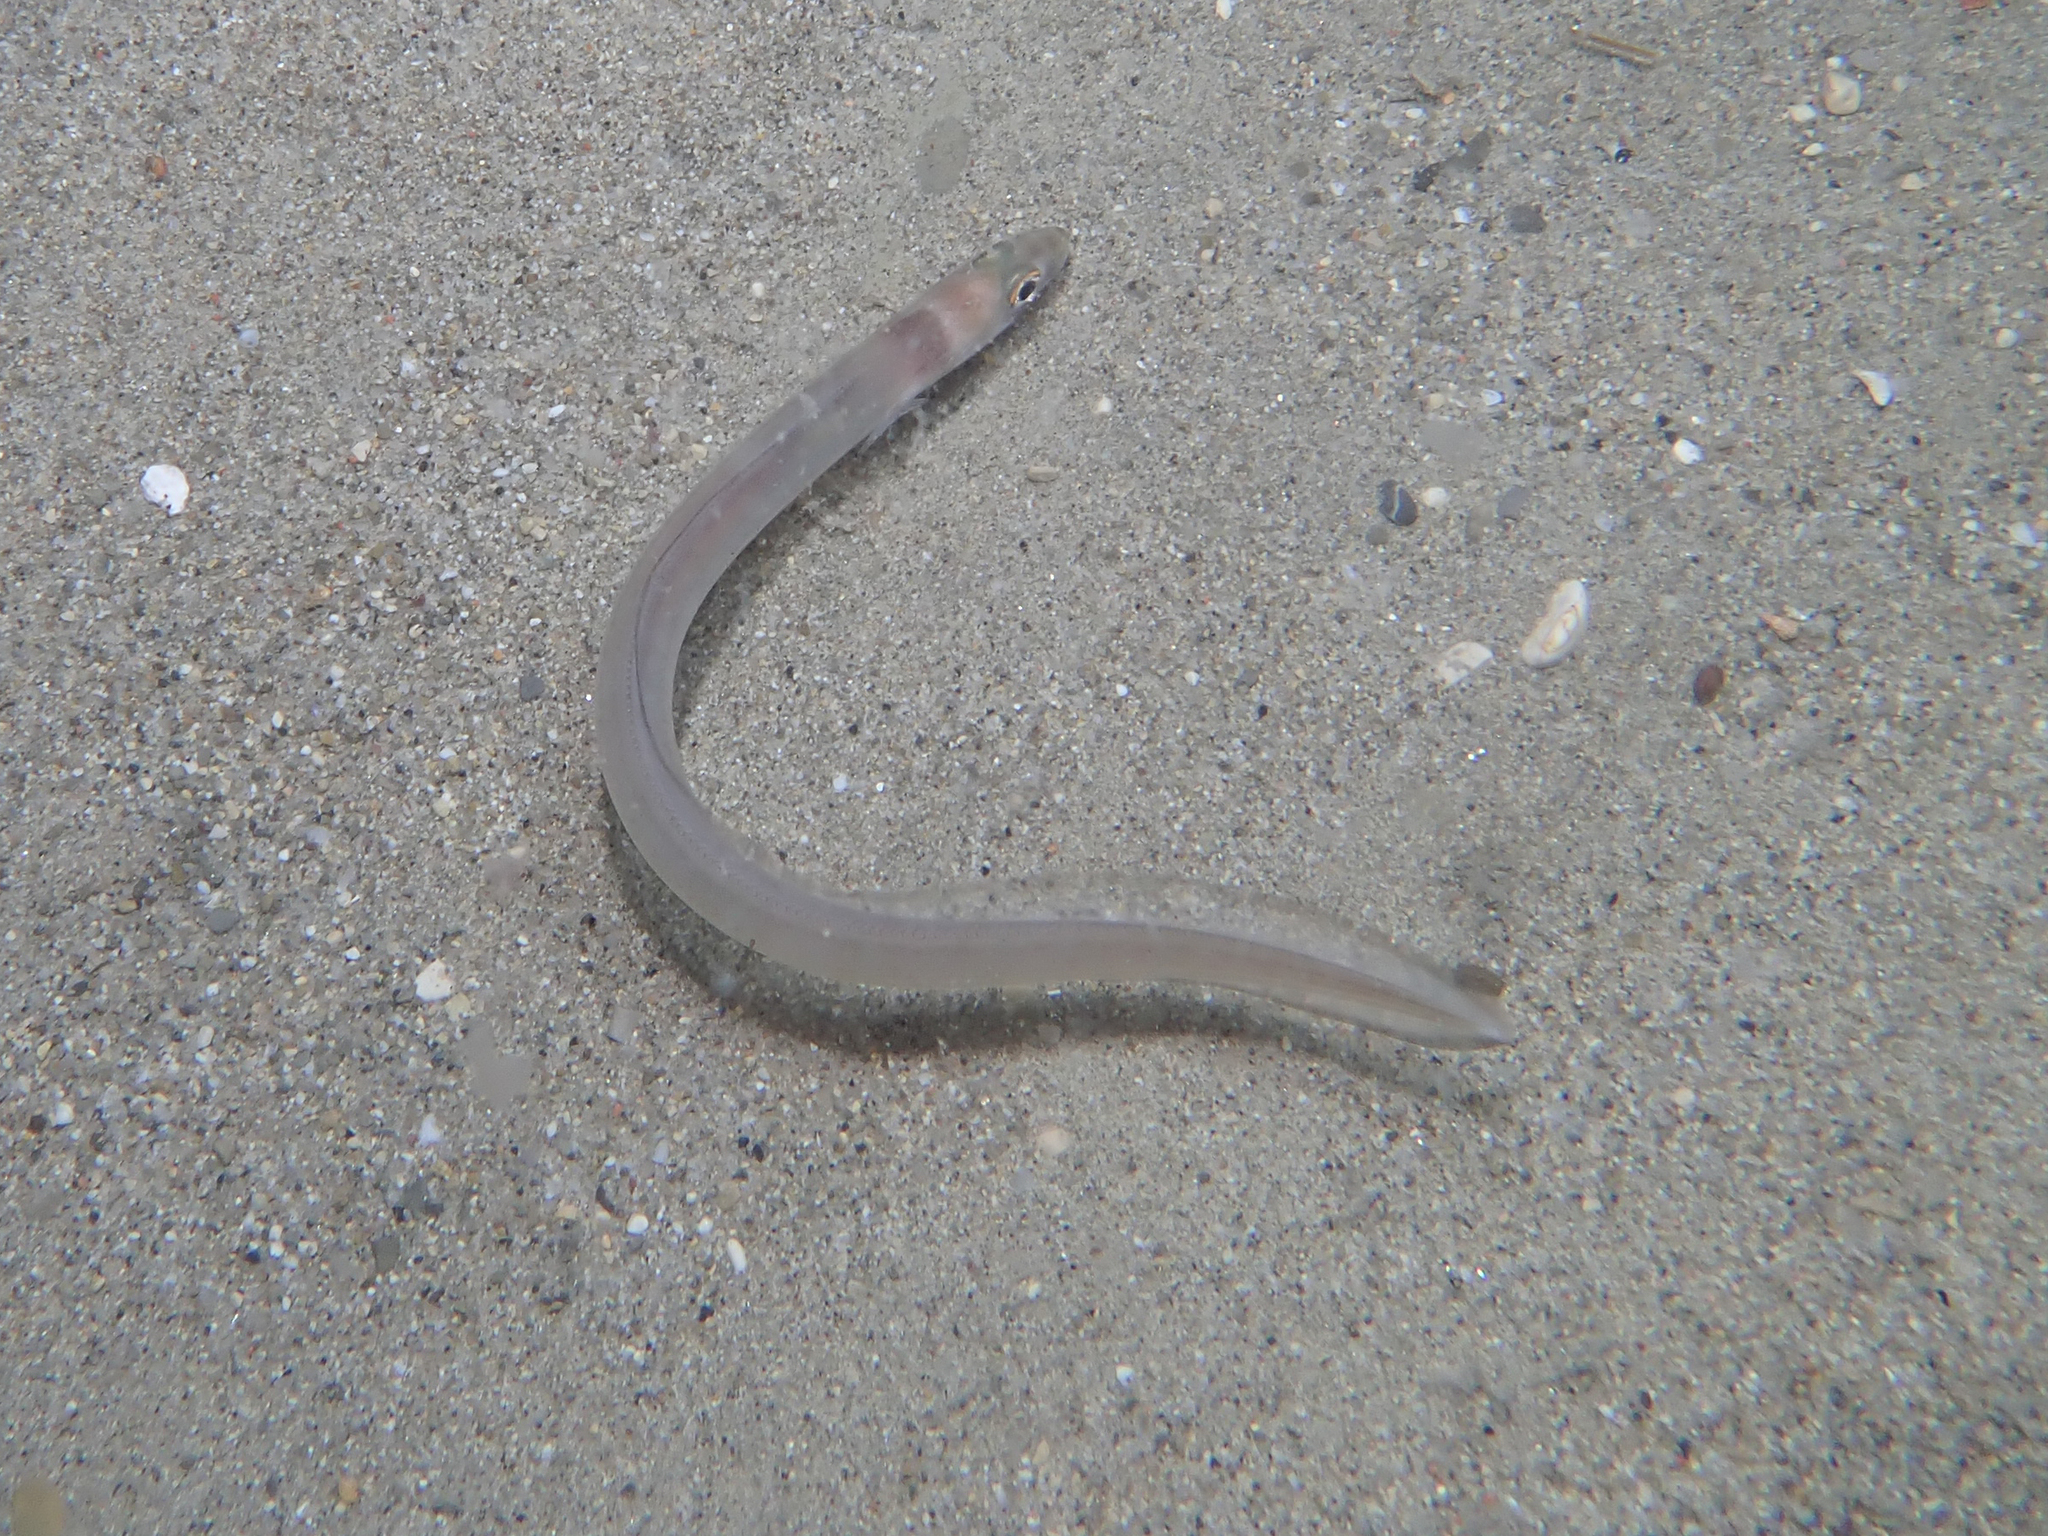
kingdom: Animalia
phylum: Chordata
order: Anguilliformes
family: Congridae
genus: Ariosoma
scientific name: Ariosoma balearicum
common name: Bandtooth conger
